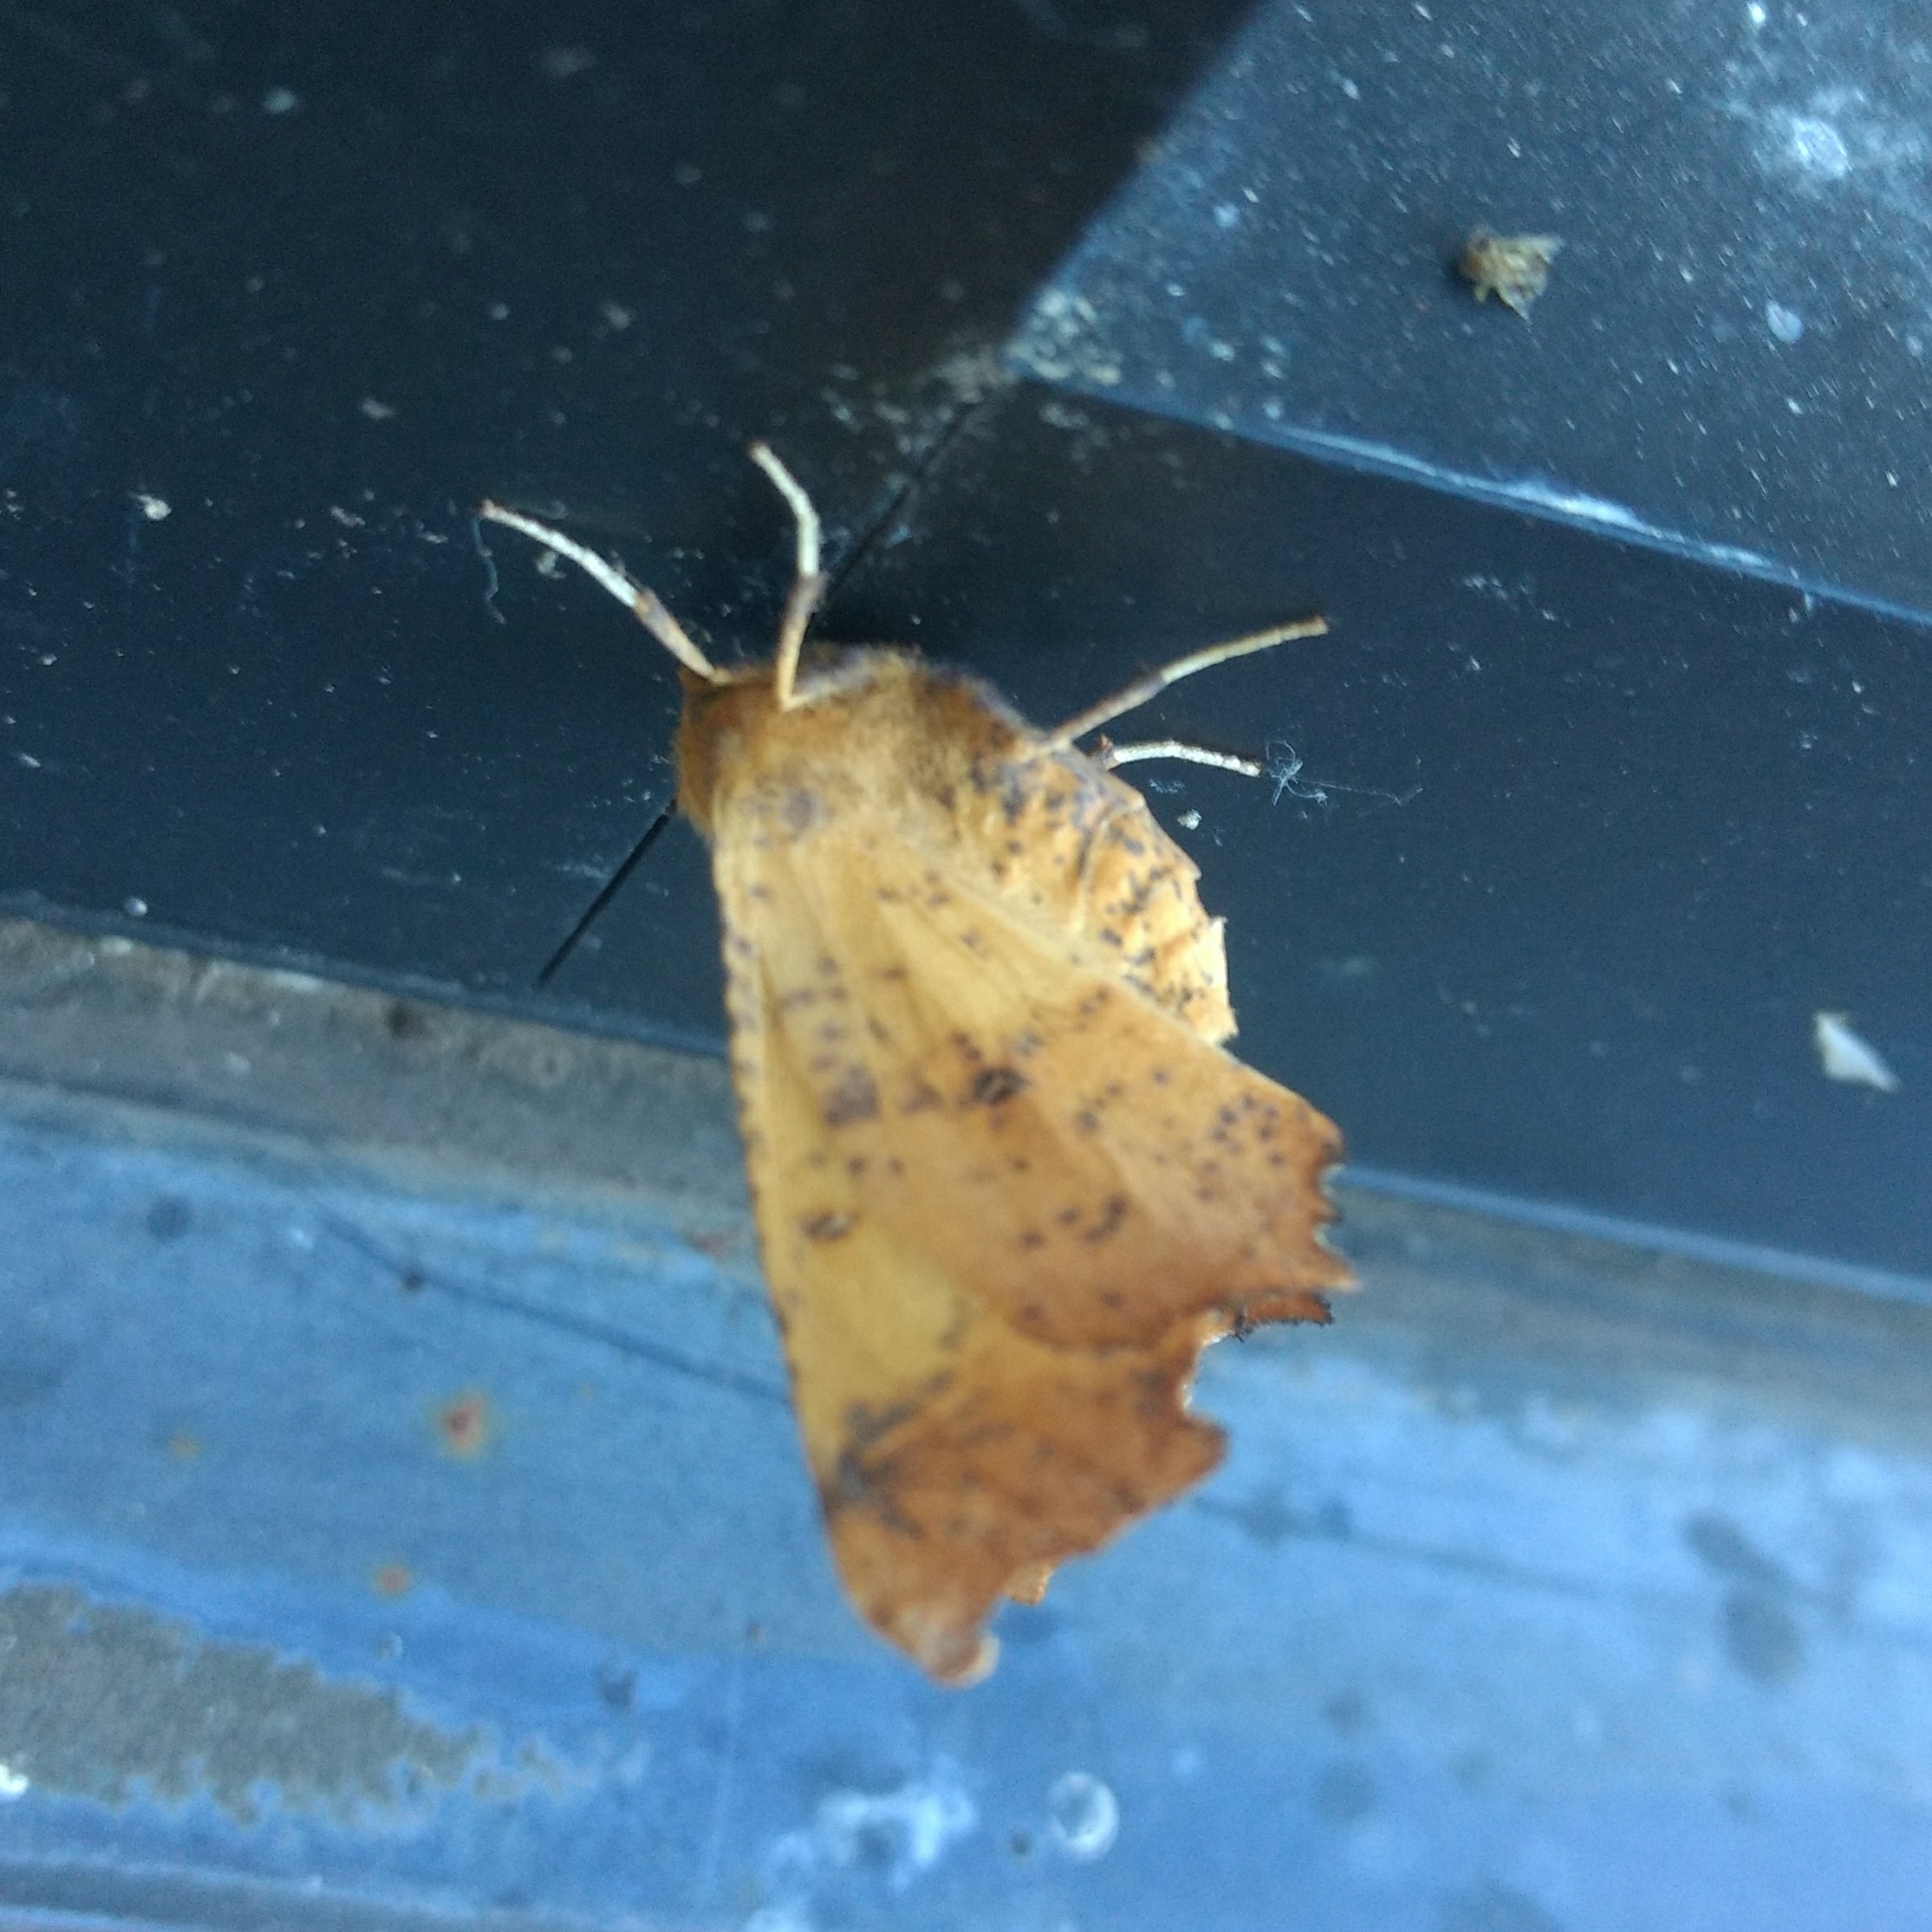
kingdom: Animalia
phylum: Arthropoda
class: Insecta
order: Lepidoptera
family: Geometridae
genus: Ennomos
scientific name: Ennomos magnaria
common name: Maple spanworm
